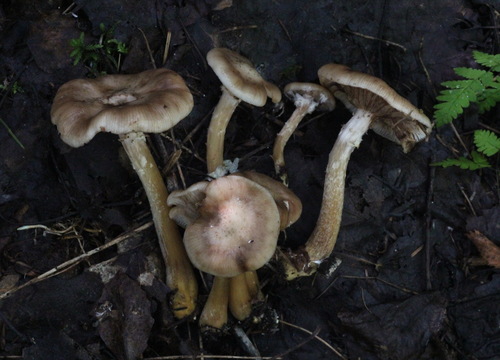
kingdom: Fungi
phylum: Basidiomycota
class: Agaricomycetes
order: Agaricales
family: Physalacriaceae
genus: Armillaria
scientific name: Armillaria cepistipes
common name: Mullet honey fungus
